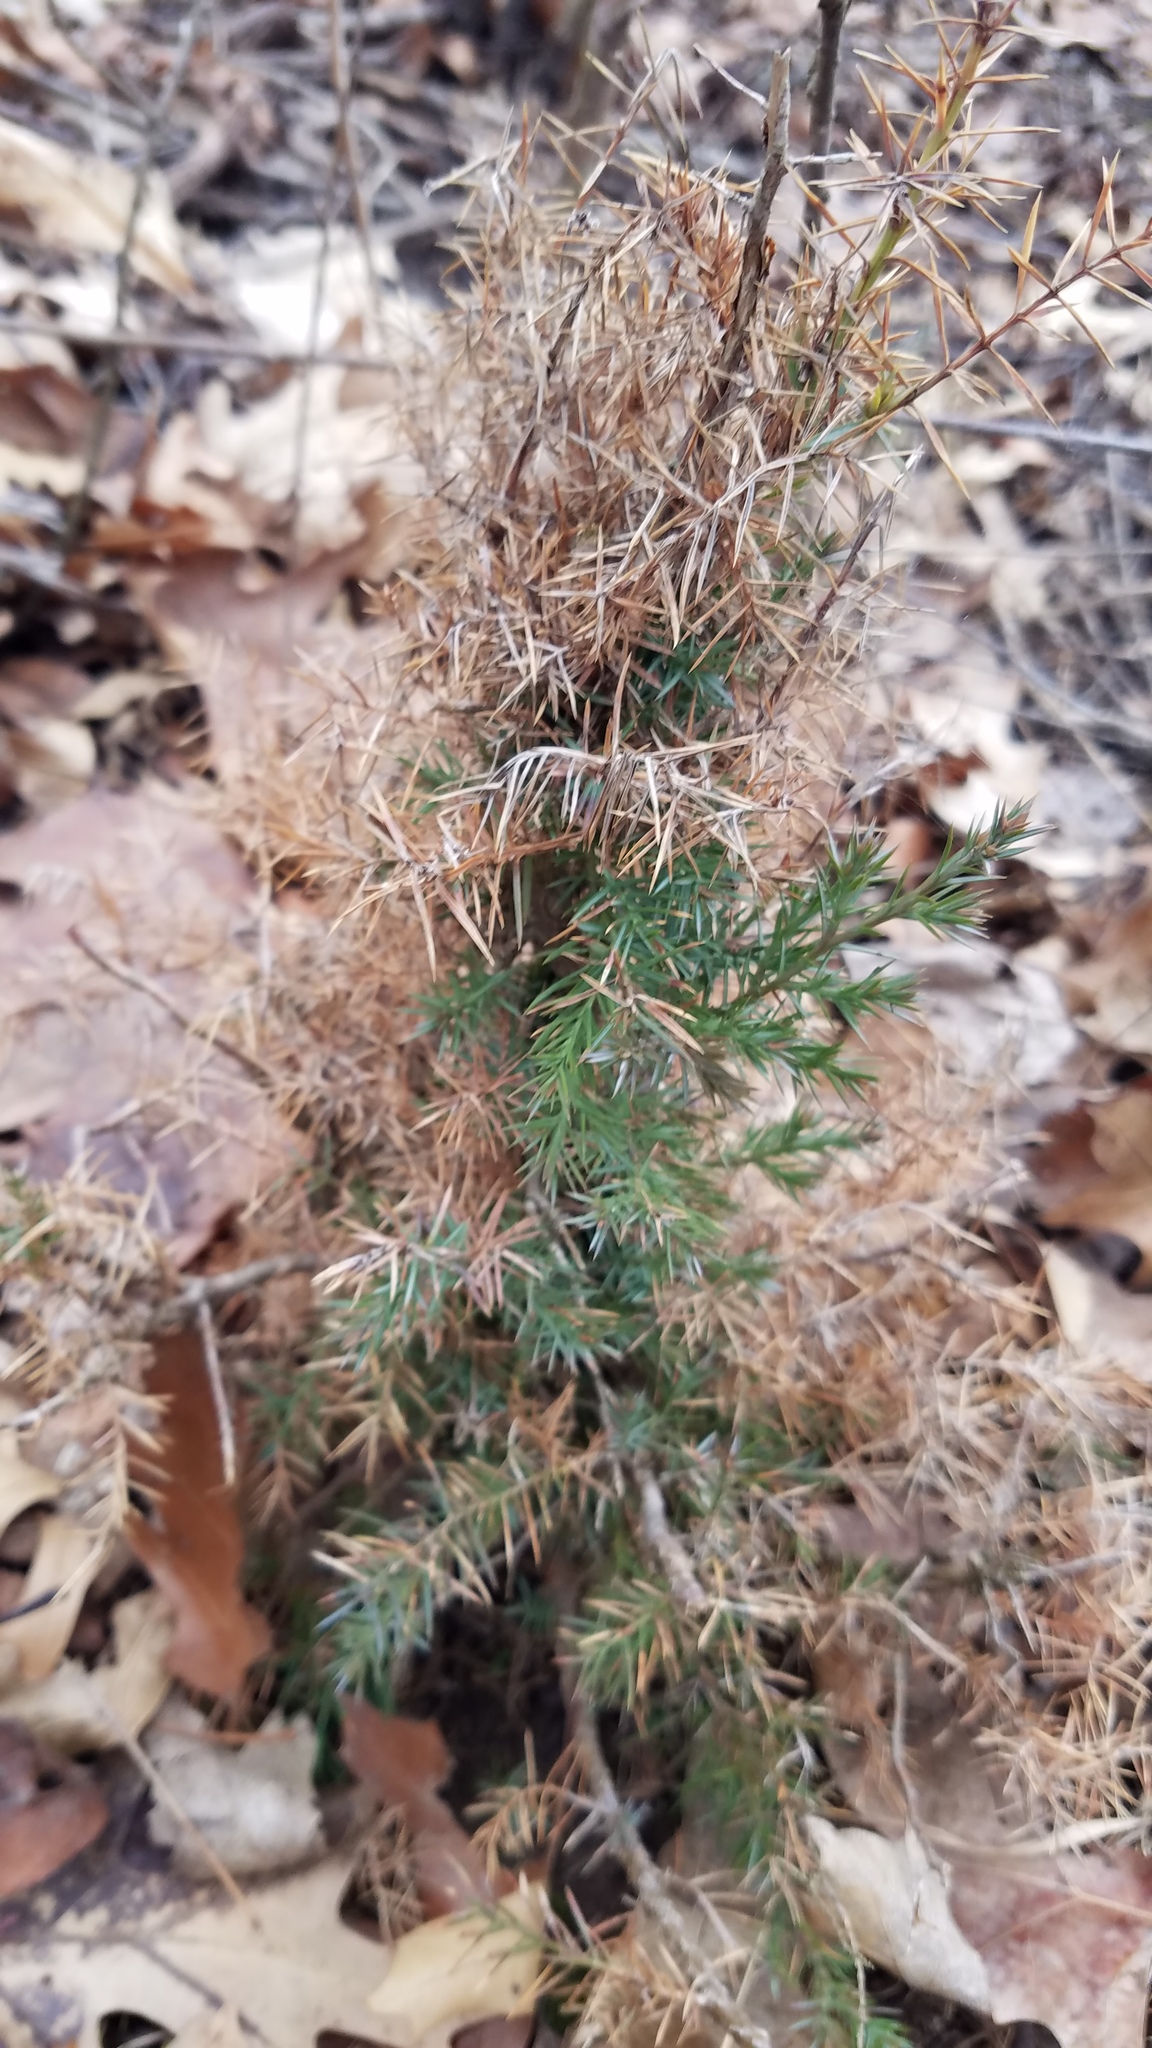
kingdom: Plantae
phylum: Tracheophyta
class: Pinopsida
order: Pinales
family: Cupressaceae
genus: Juniperus
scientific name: Juniperus virginiana
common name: Red juniper
